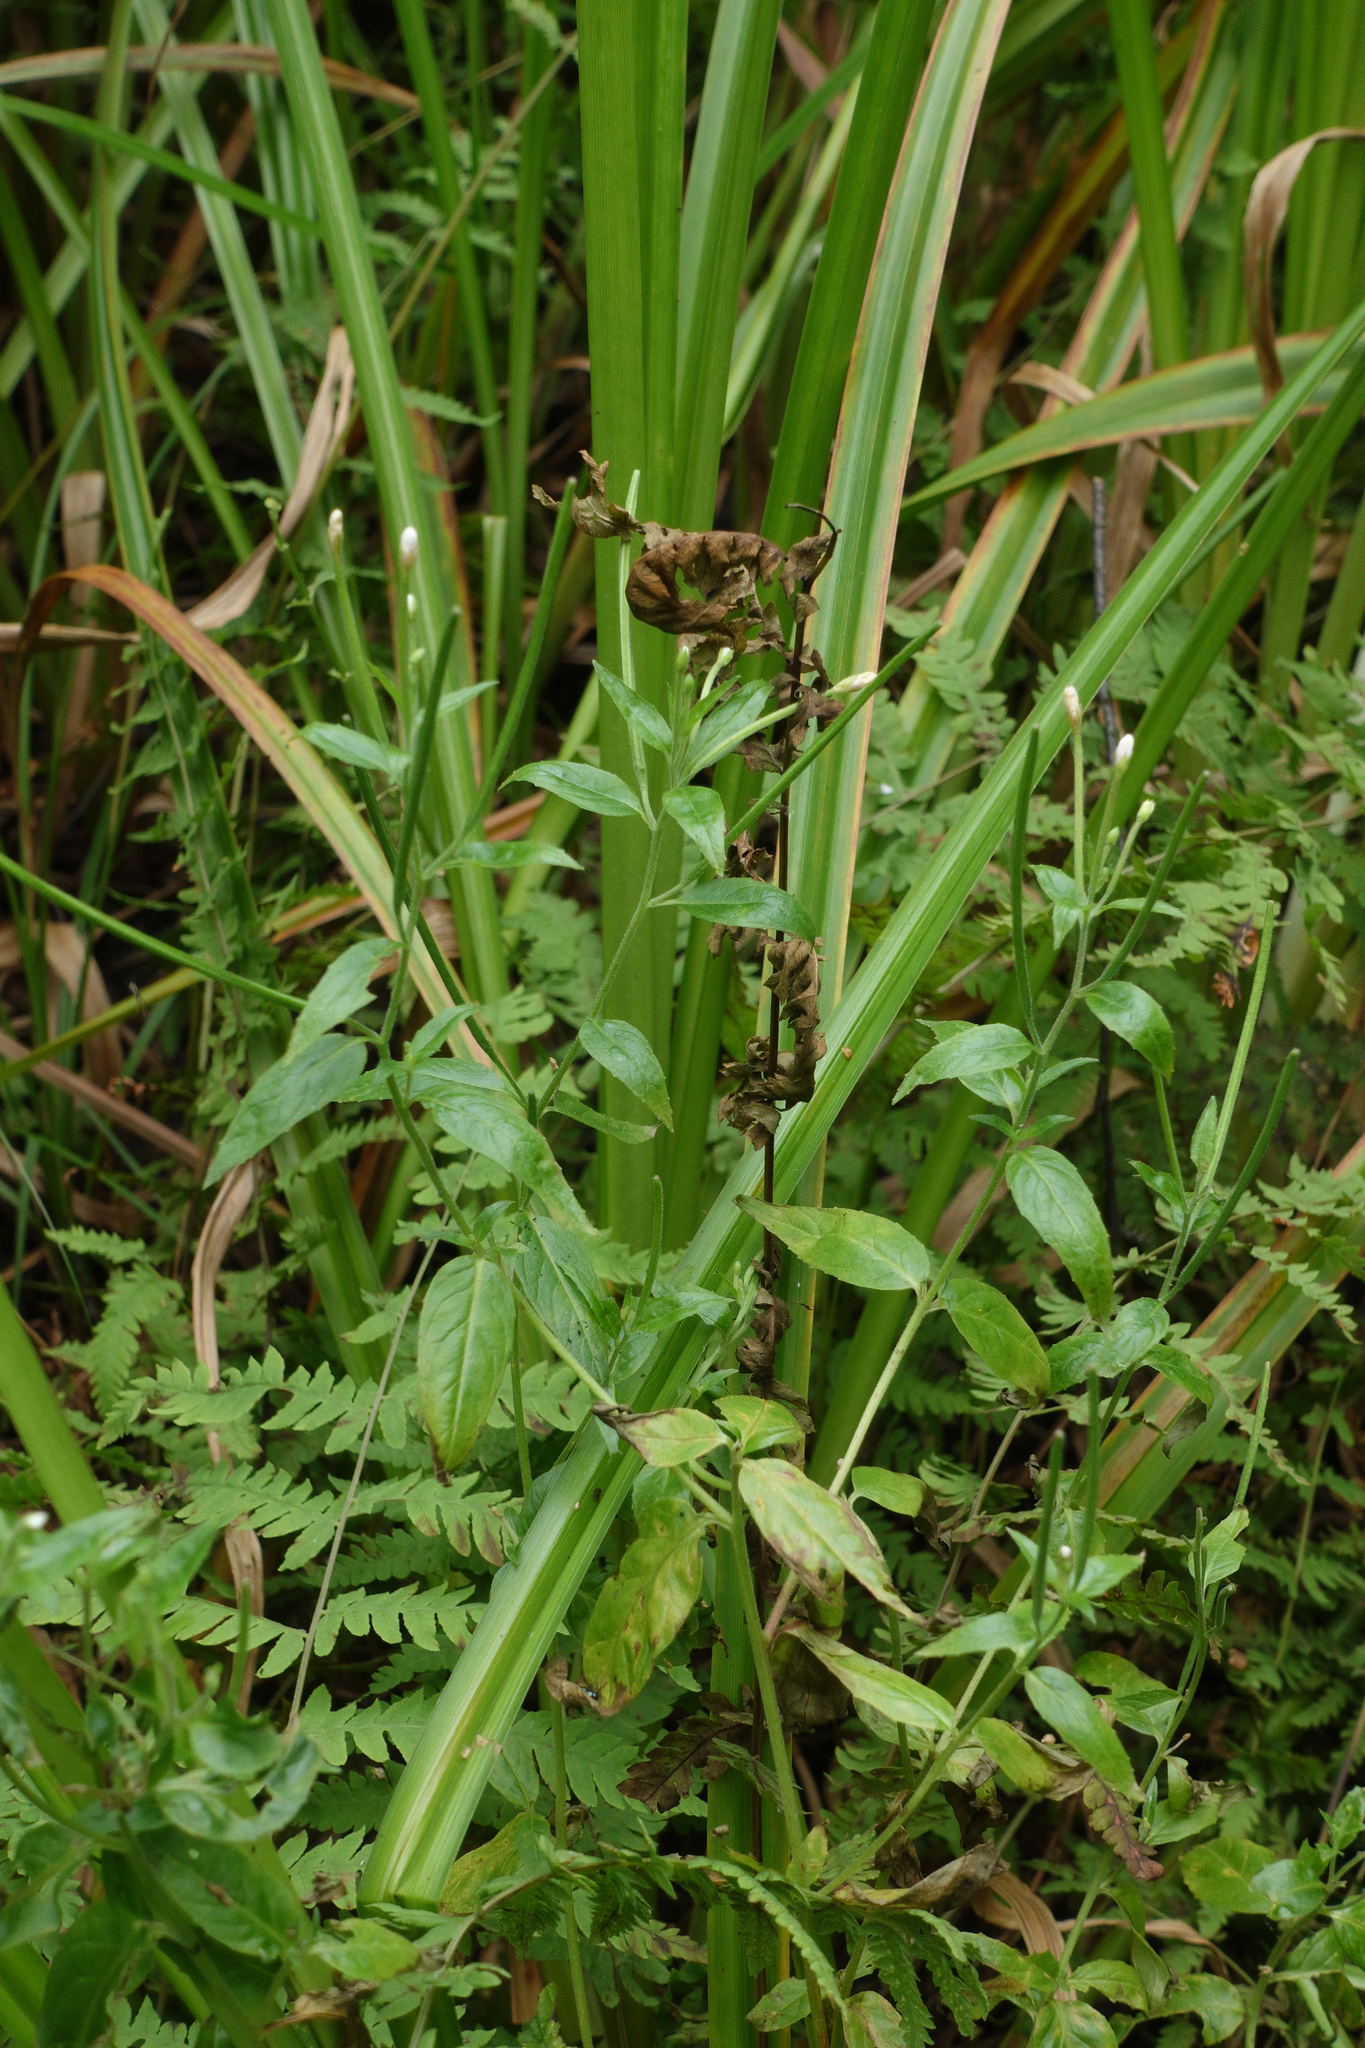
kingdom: Plantae
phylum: Tracheophyta
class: Magnoliopsida
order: Myrtales
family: Onagraceae
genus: Epilobium
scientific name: Epilobium pseudorubescens
